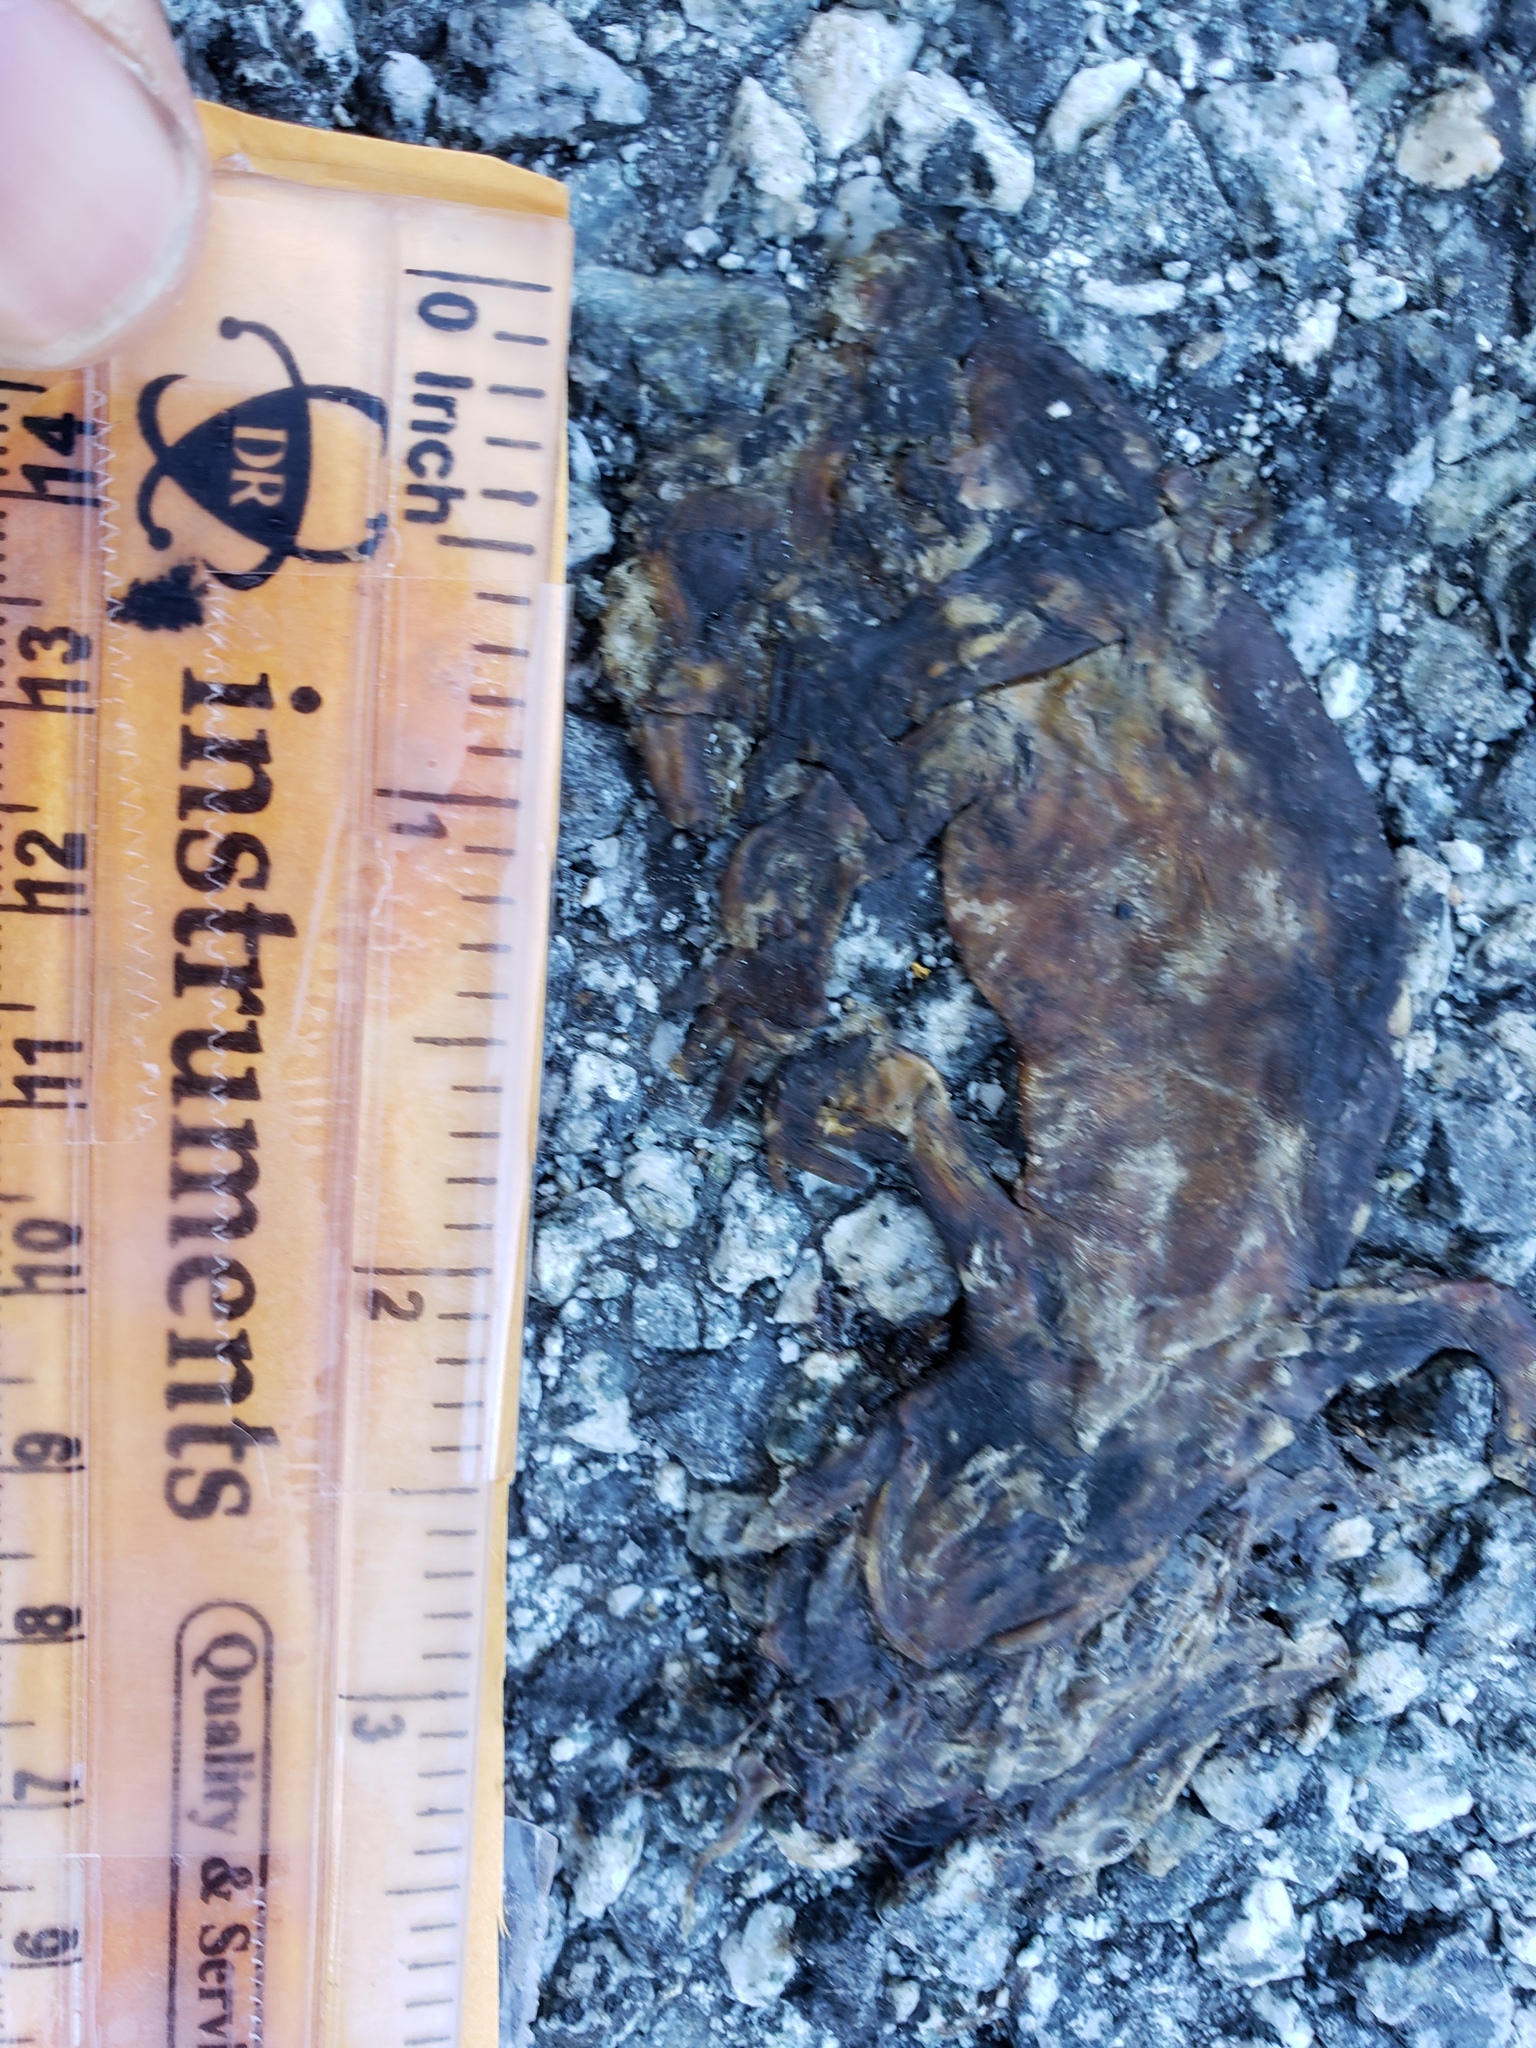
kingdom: Animalia
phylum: Chordata
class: Amphibia
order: Caudata
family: Salamandridae
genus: Taricha
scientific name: Taricha
